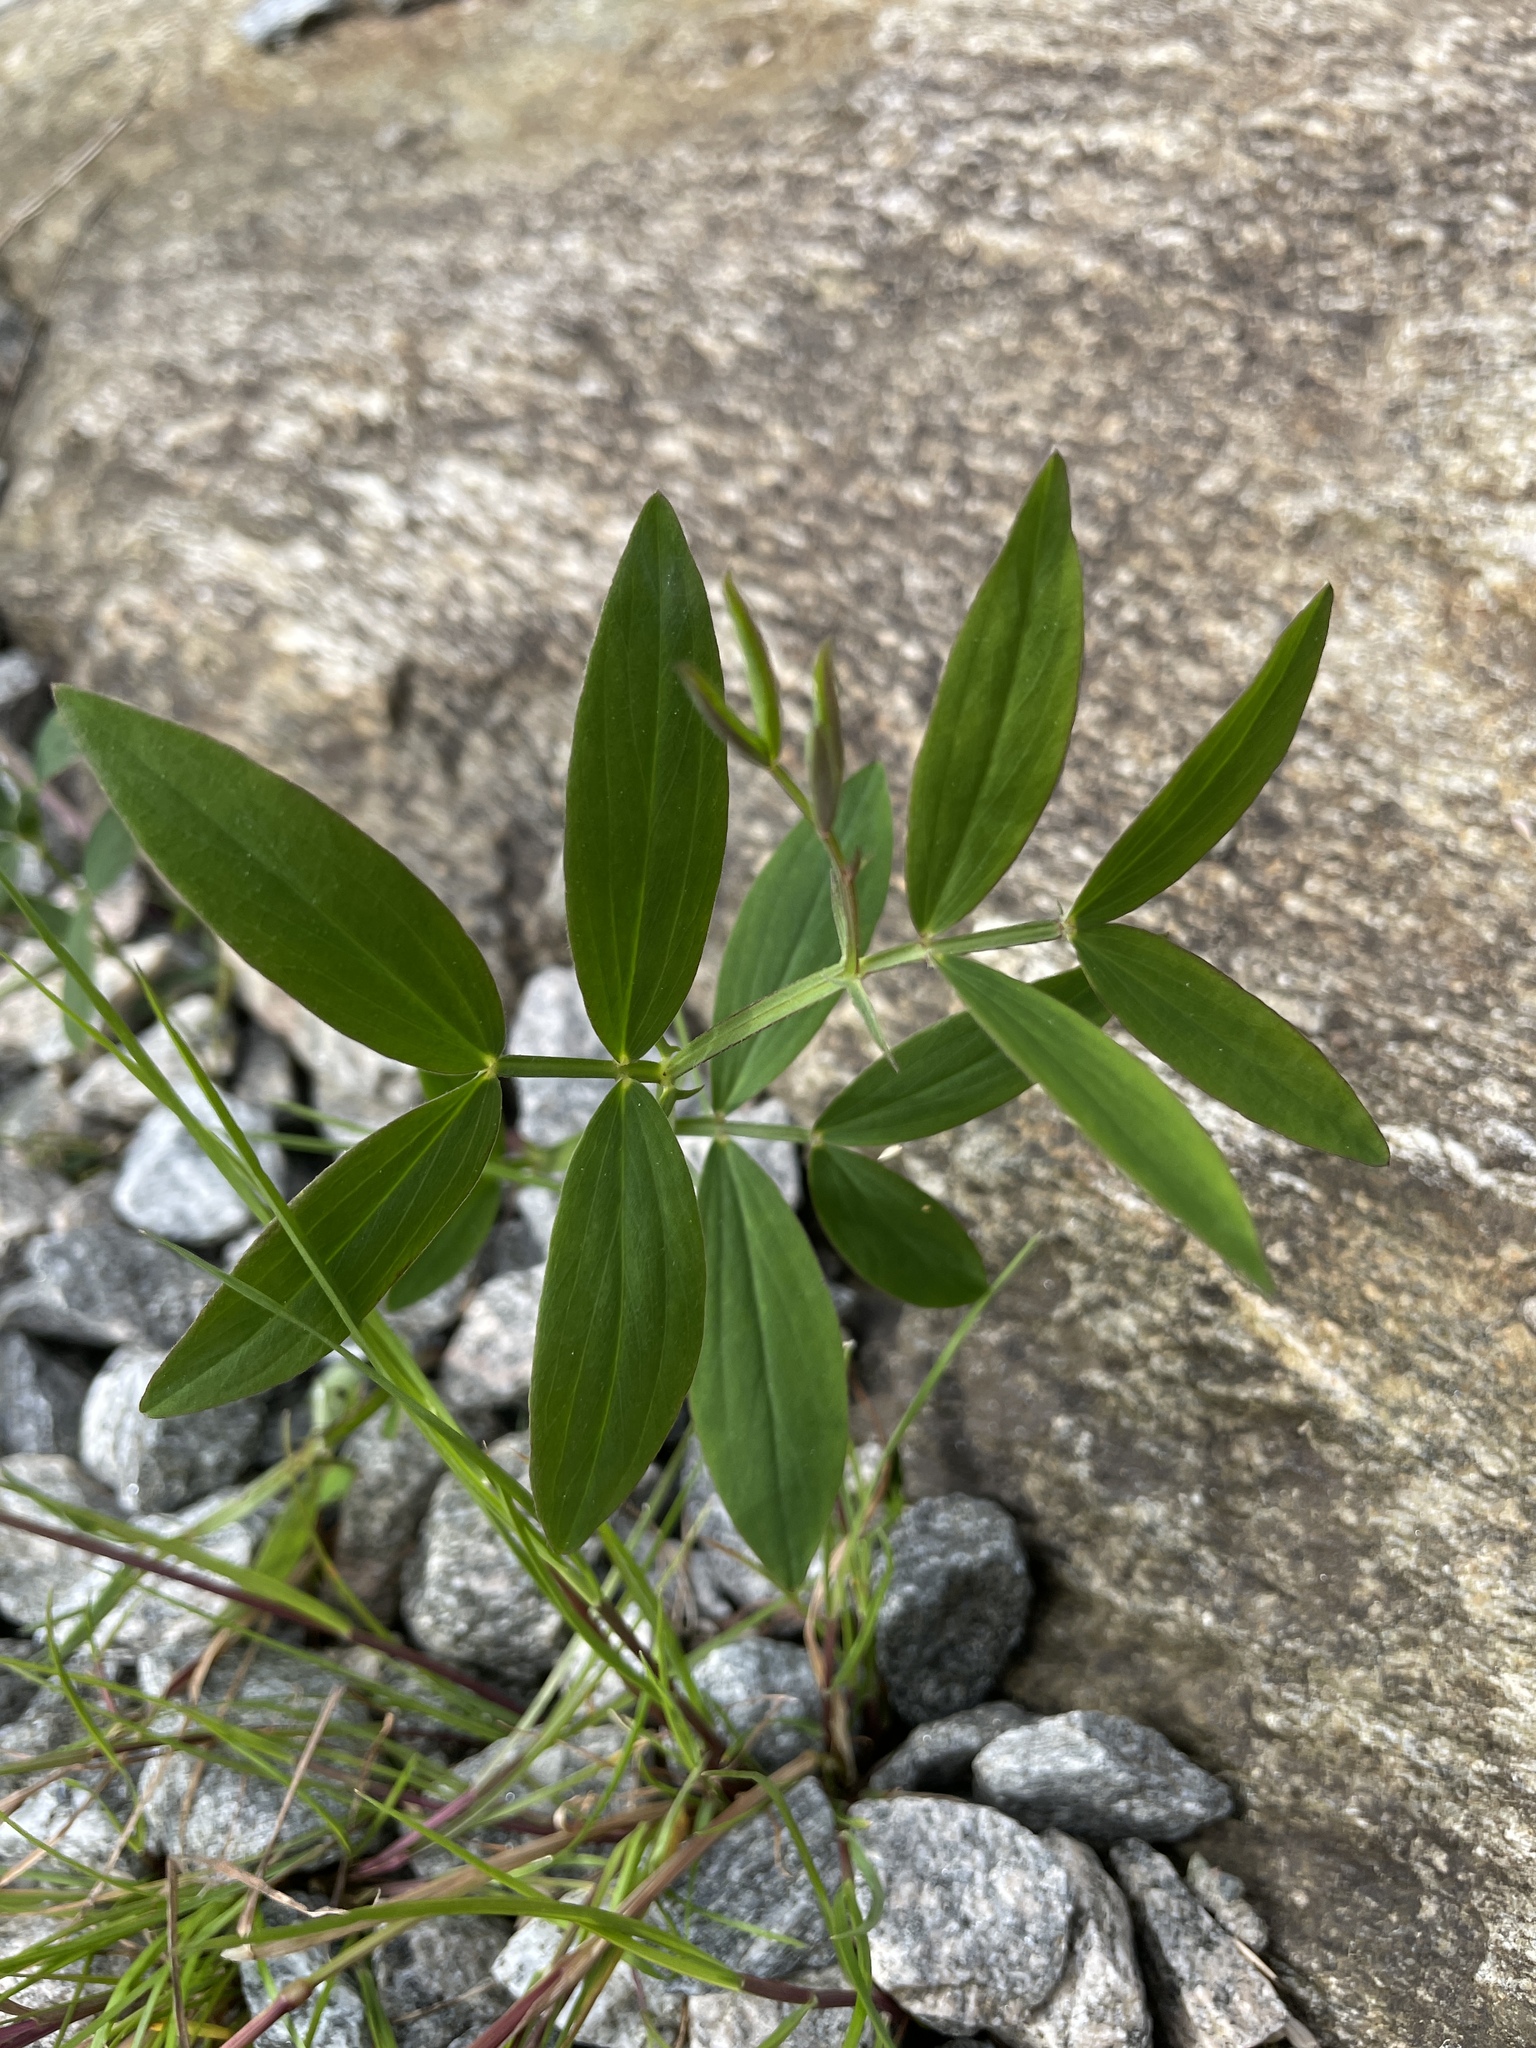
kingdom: Plantae
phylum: Tracheophyta
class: Magnoliopsida
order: Fabales
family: Fabaceae
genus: Lathyrus
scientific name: Lathyrus linifolius
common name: Bitter-vetch
